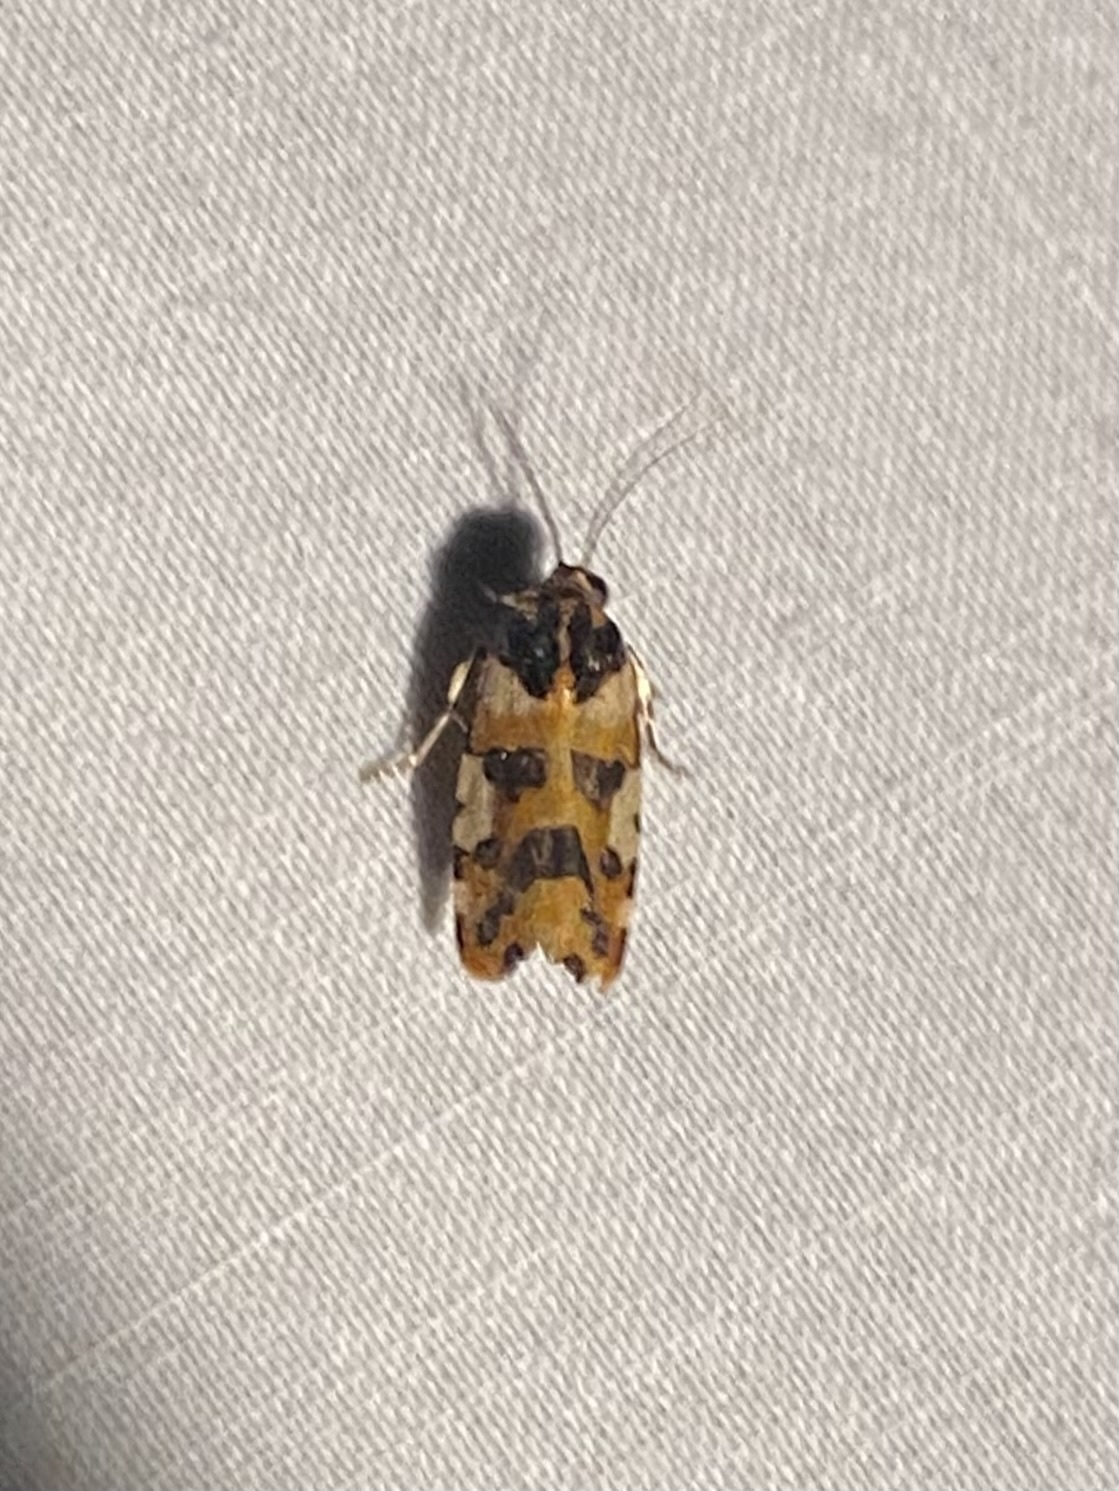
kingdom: Animalia
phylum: Arthropoda
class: Insecta
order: Lepidoptera
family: Noctuidae
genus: Acontia
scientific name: Acontia dama
